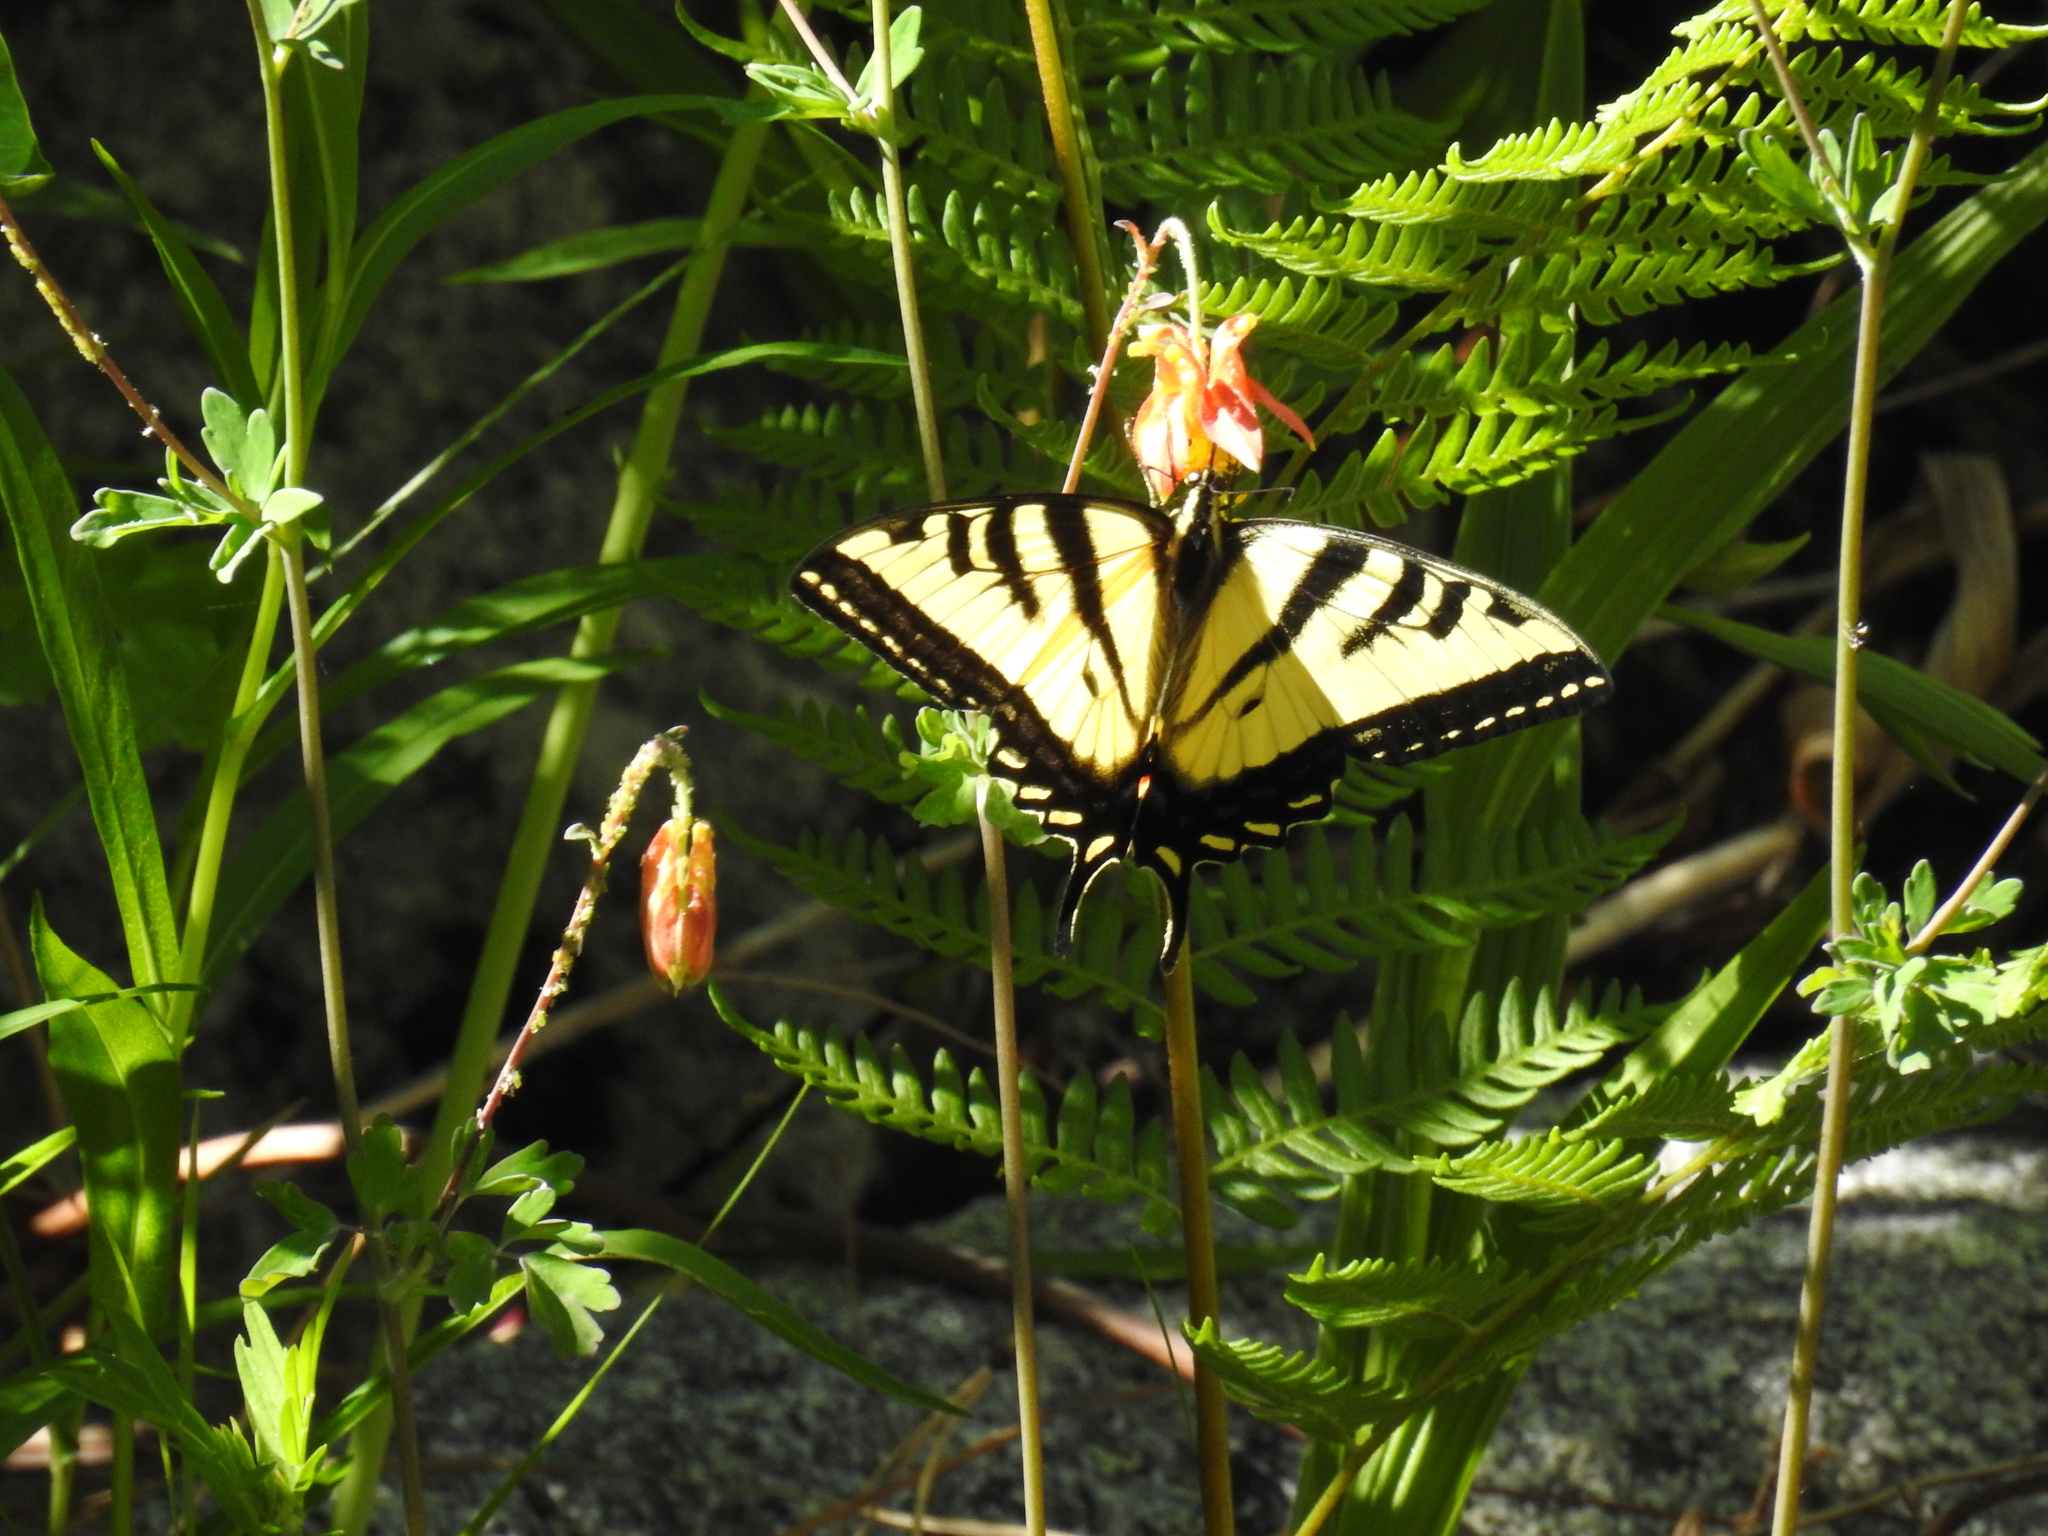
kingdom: Animalia
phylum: Arthropoda
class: Insecta
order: Lepidoptera
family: Papilionidae
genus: Papilio
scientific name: Papilio rutulus
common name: Western tiger swallowtail
